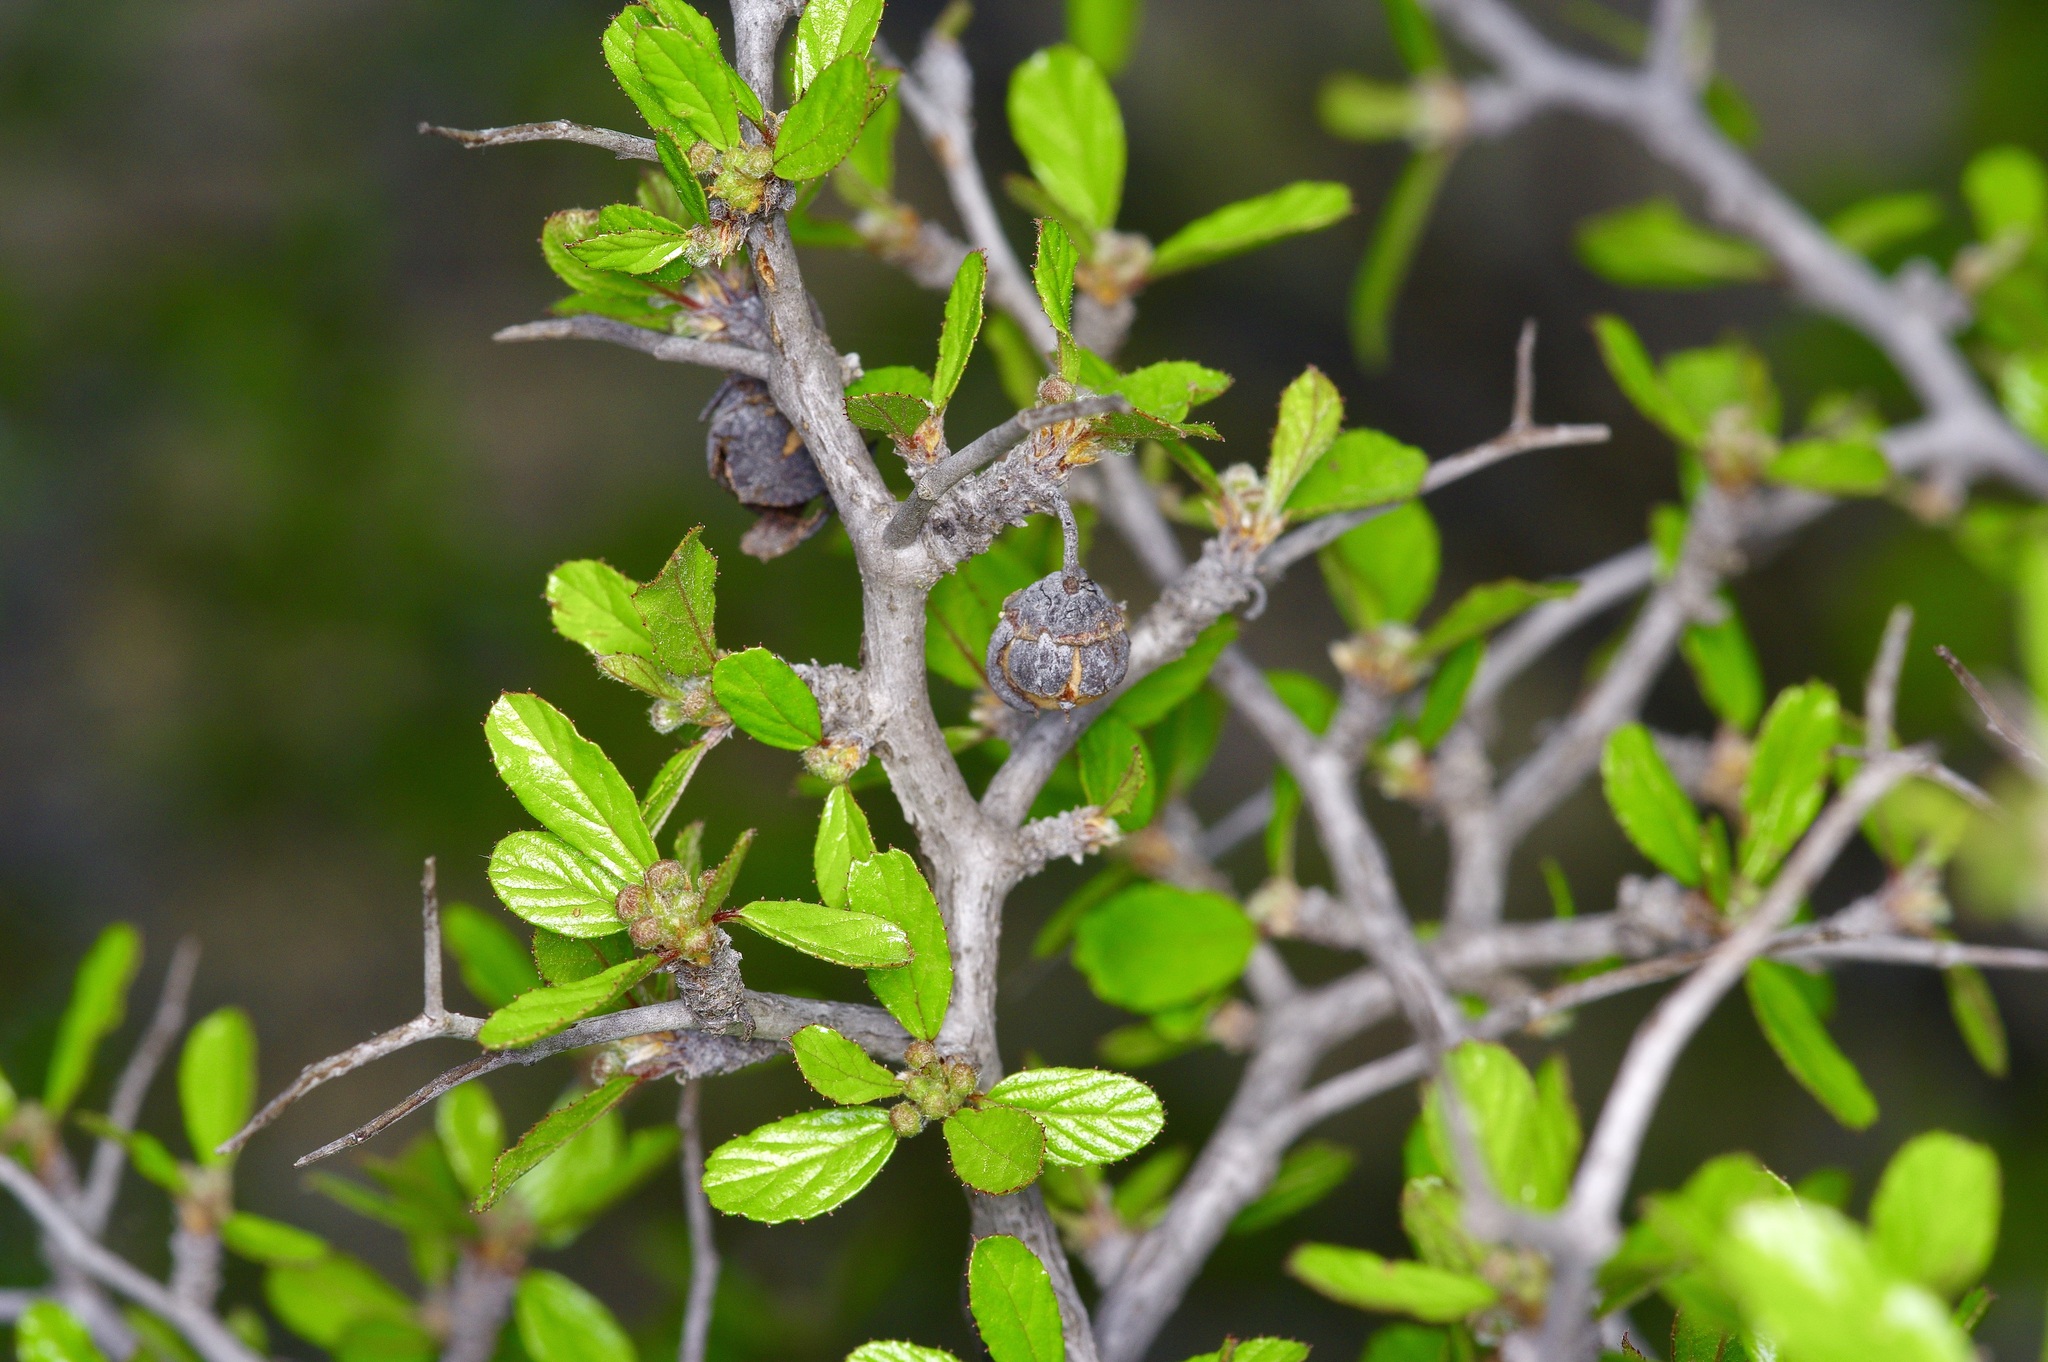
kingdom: Plantae
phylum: Tracheophyta
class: Magnoliopsida
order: Rosales
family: Rhamnaceae
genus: Colubrina
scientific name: Colubrina texensis
